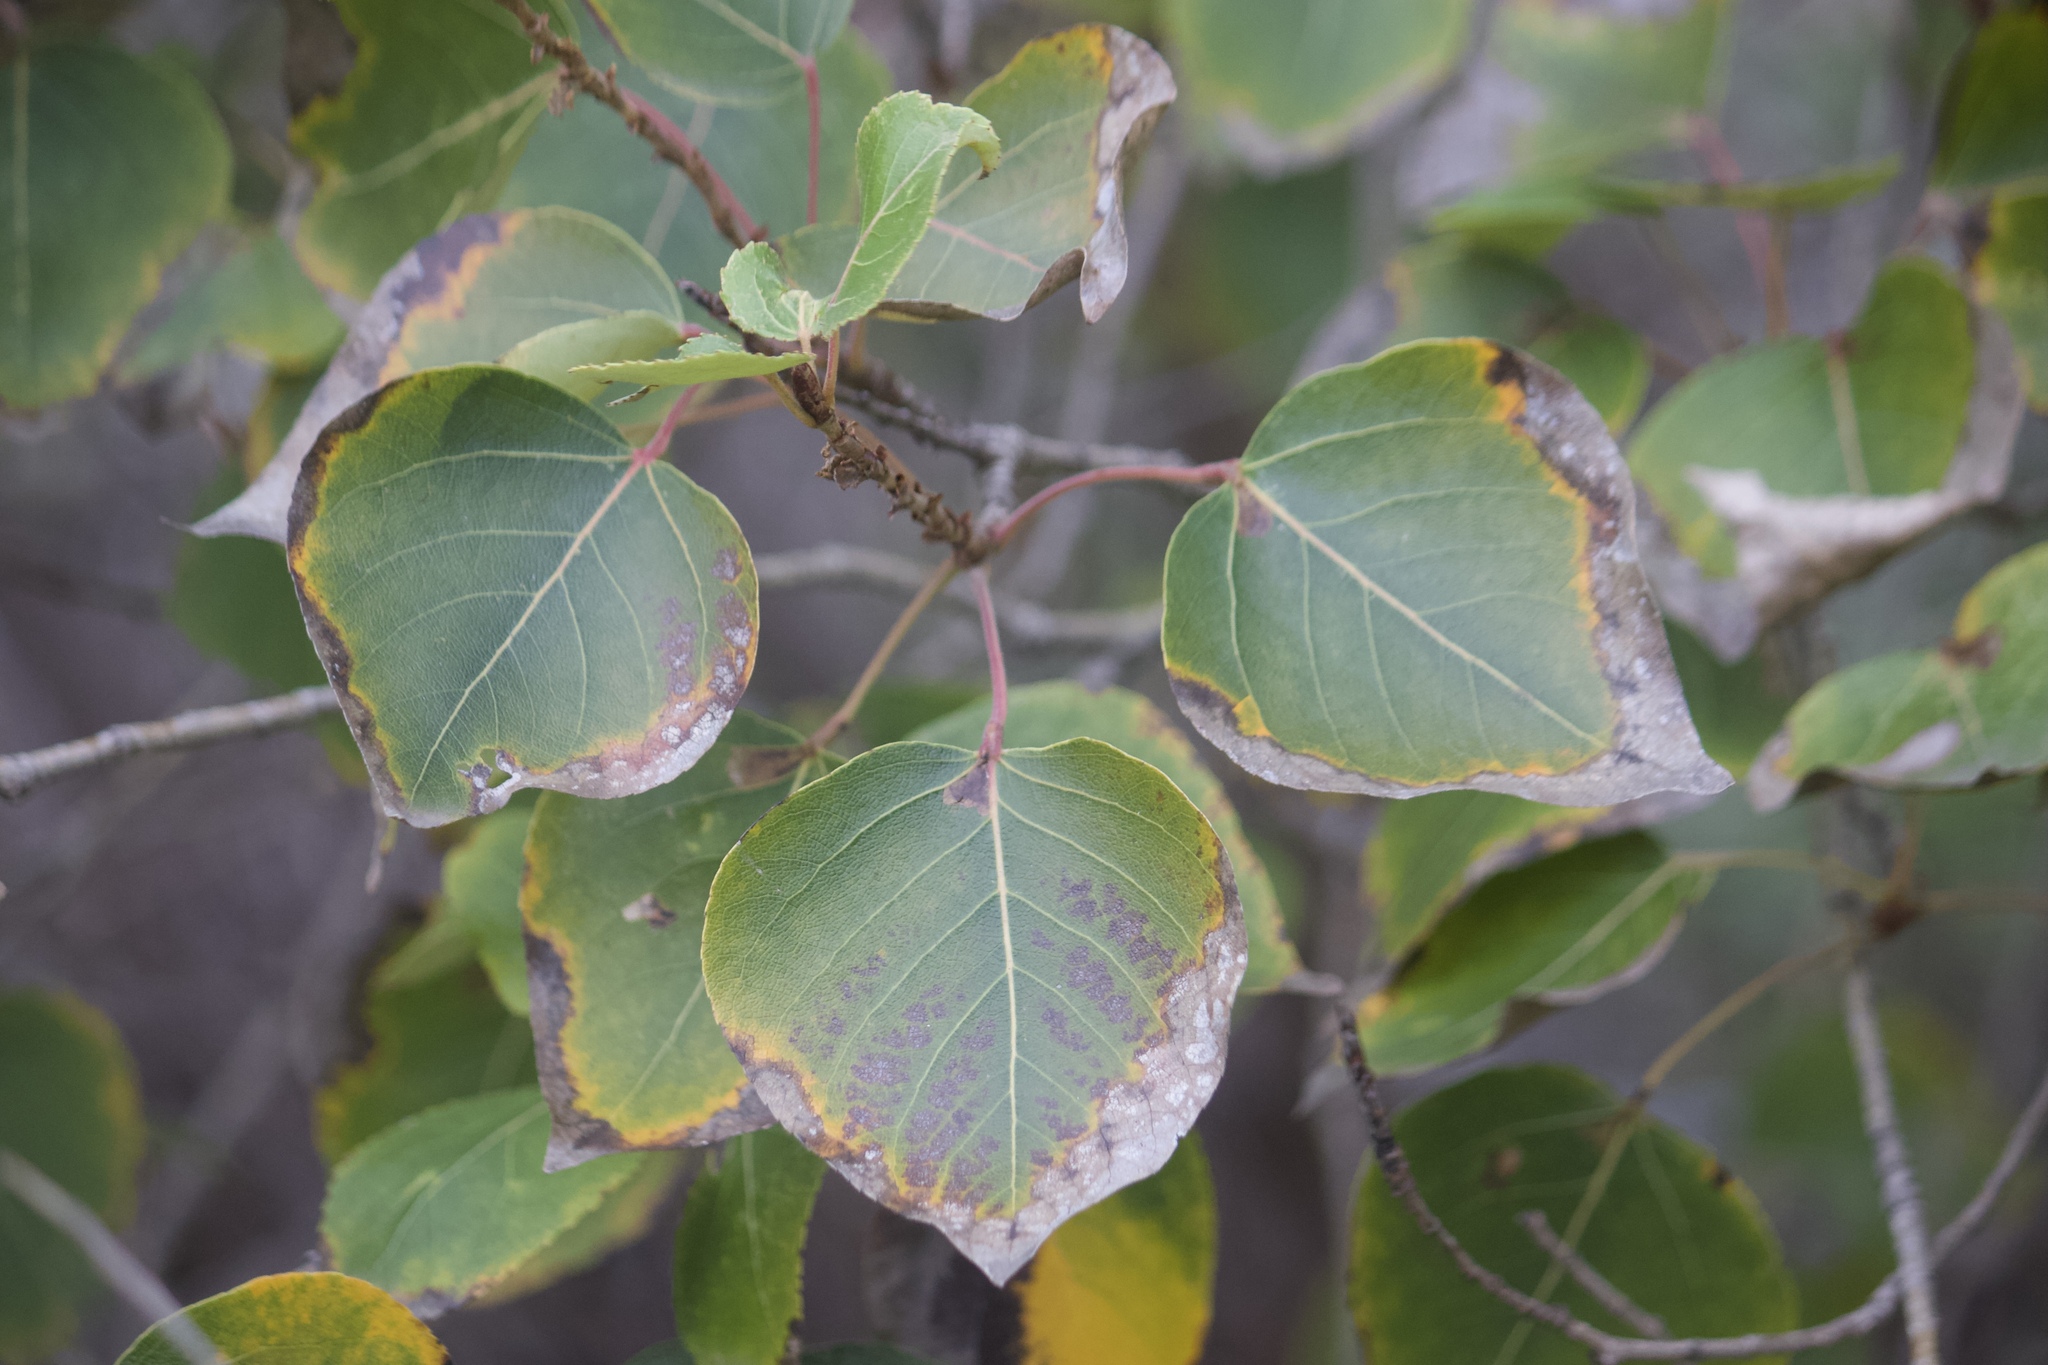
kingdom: Plantae
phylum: Tracheophyta
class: Magnoliopsida
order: Malpighiales
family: Salicaceae
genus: Populus
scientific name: Populus trichocarpa
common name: Black cottonwood
